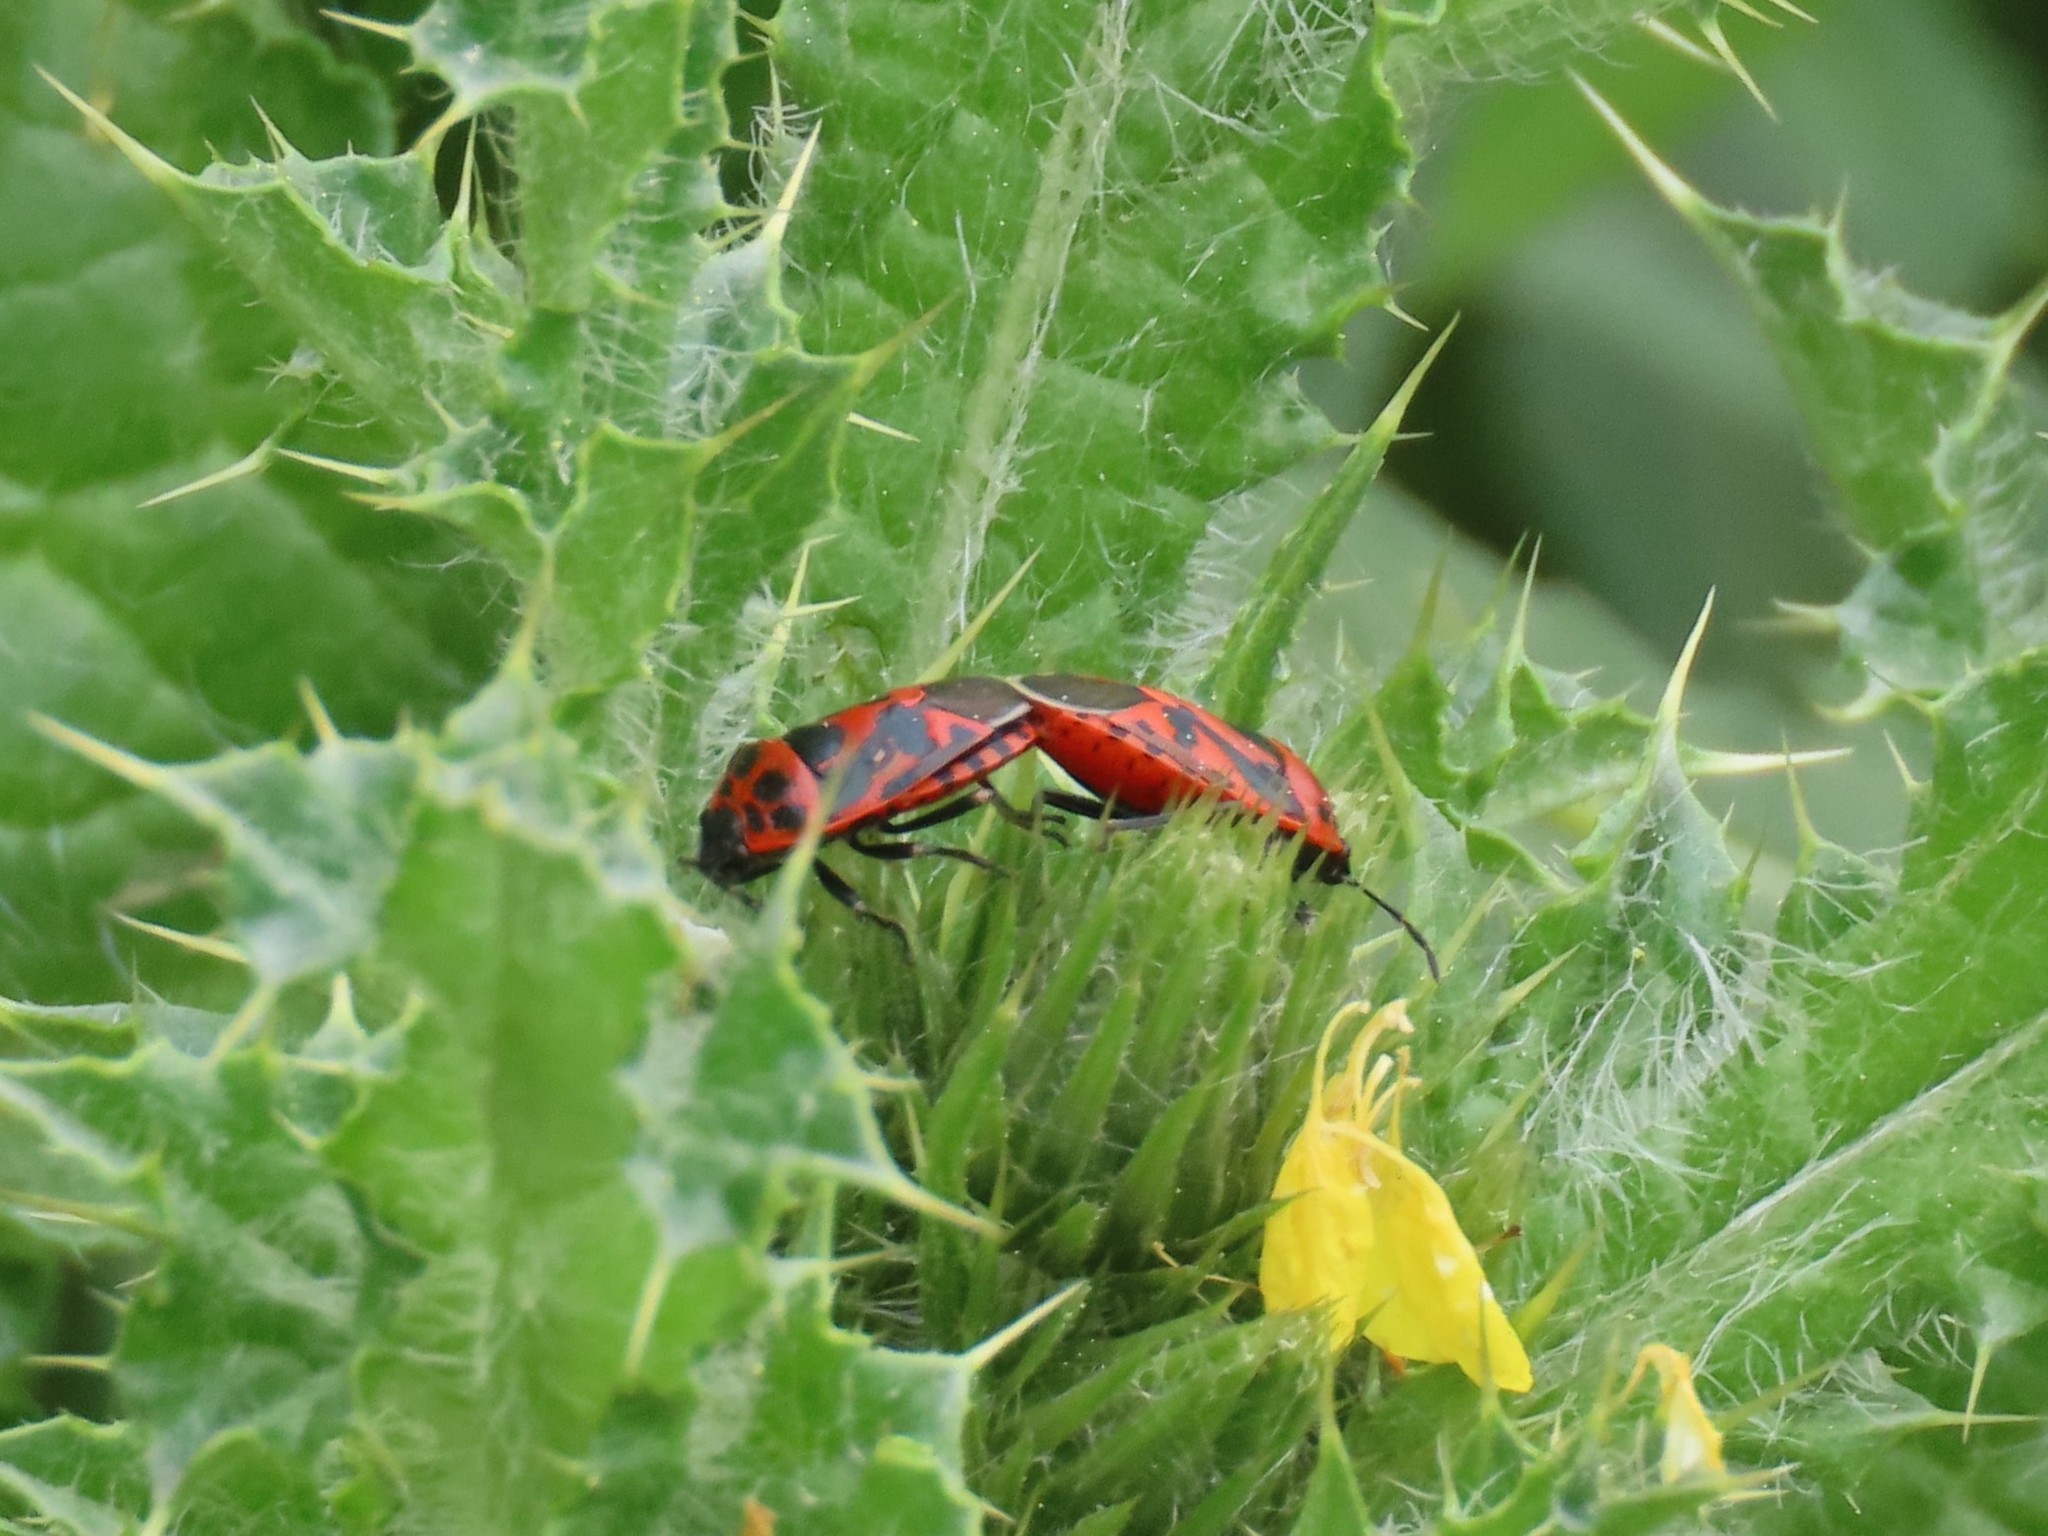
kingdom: Animalia
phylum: Arthropoda
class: Insecta
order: Hemiptera
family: Pentatomidae
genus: Eurydema
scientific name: Eurydema ornata
